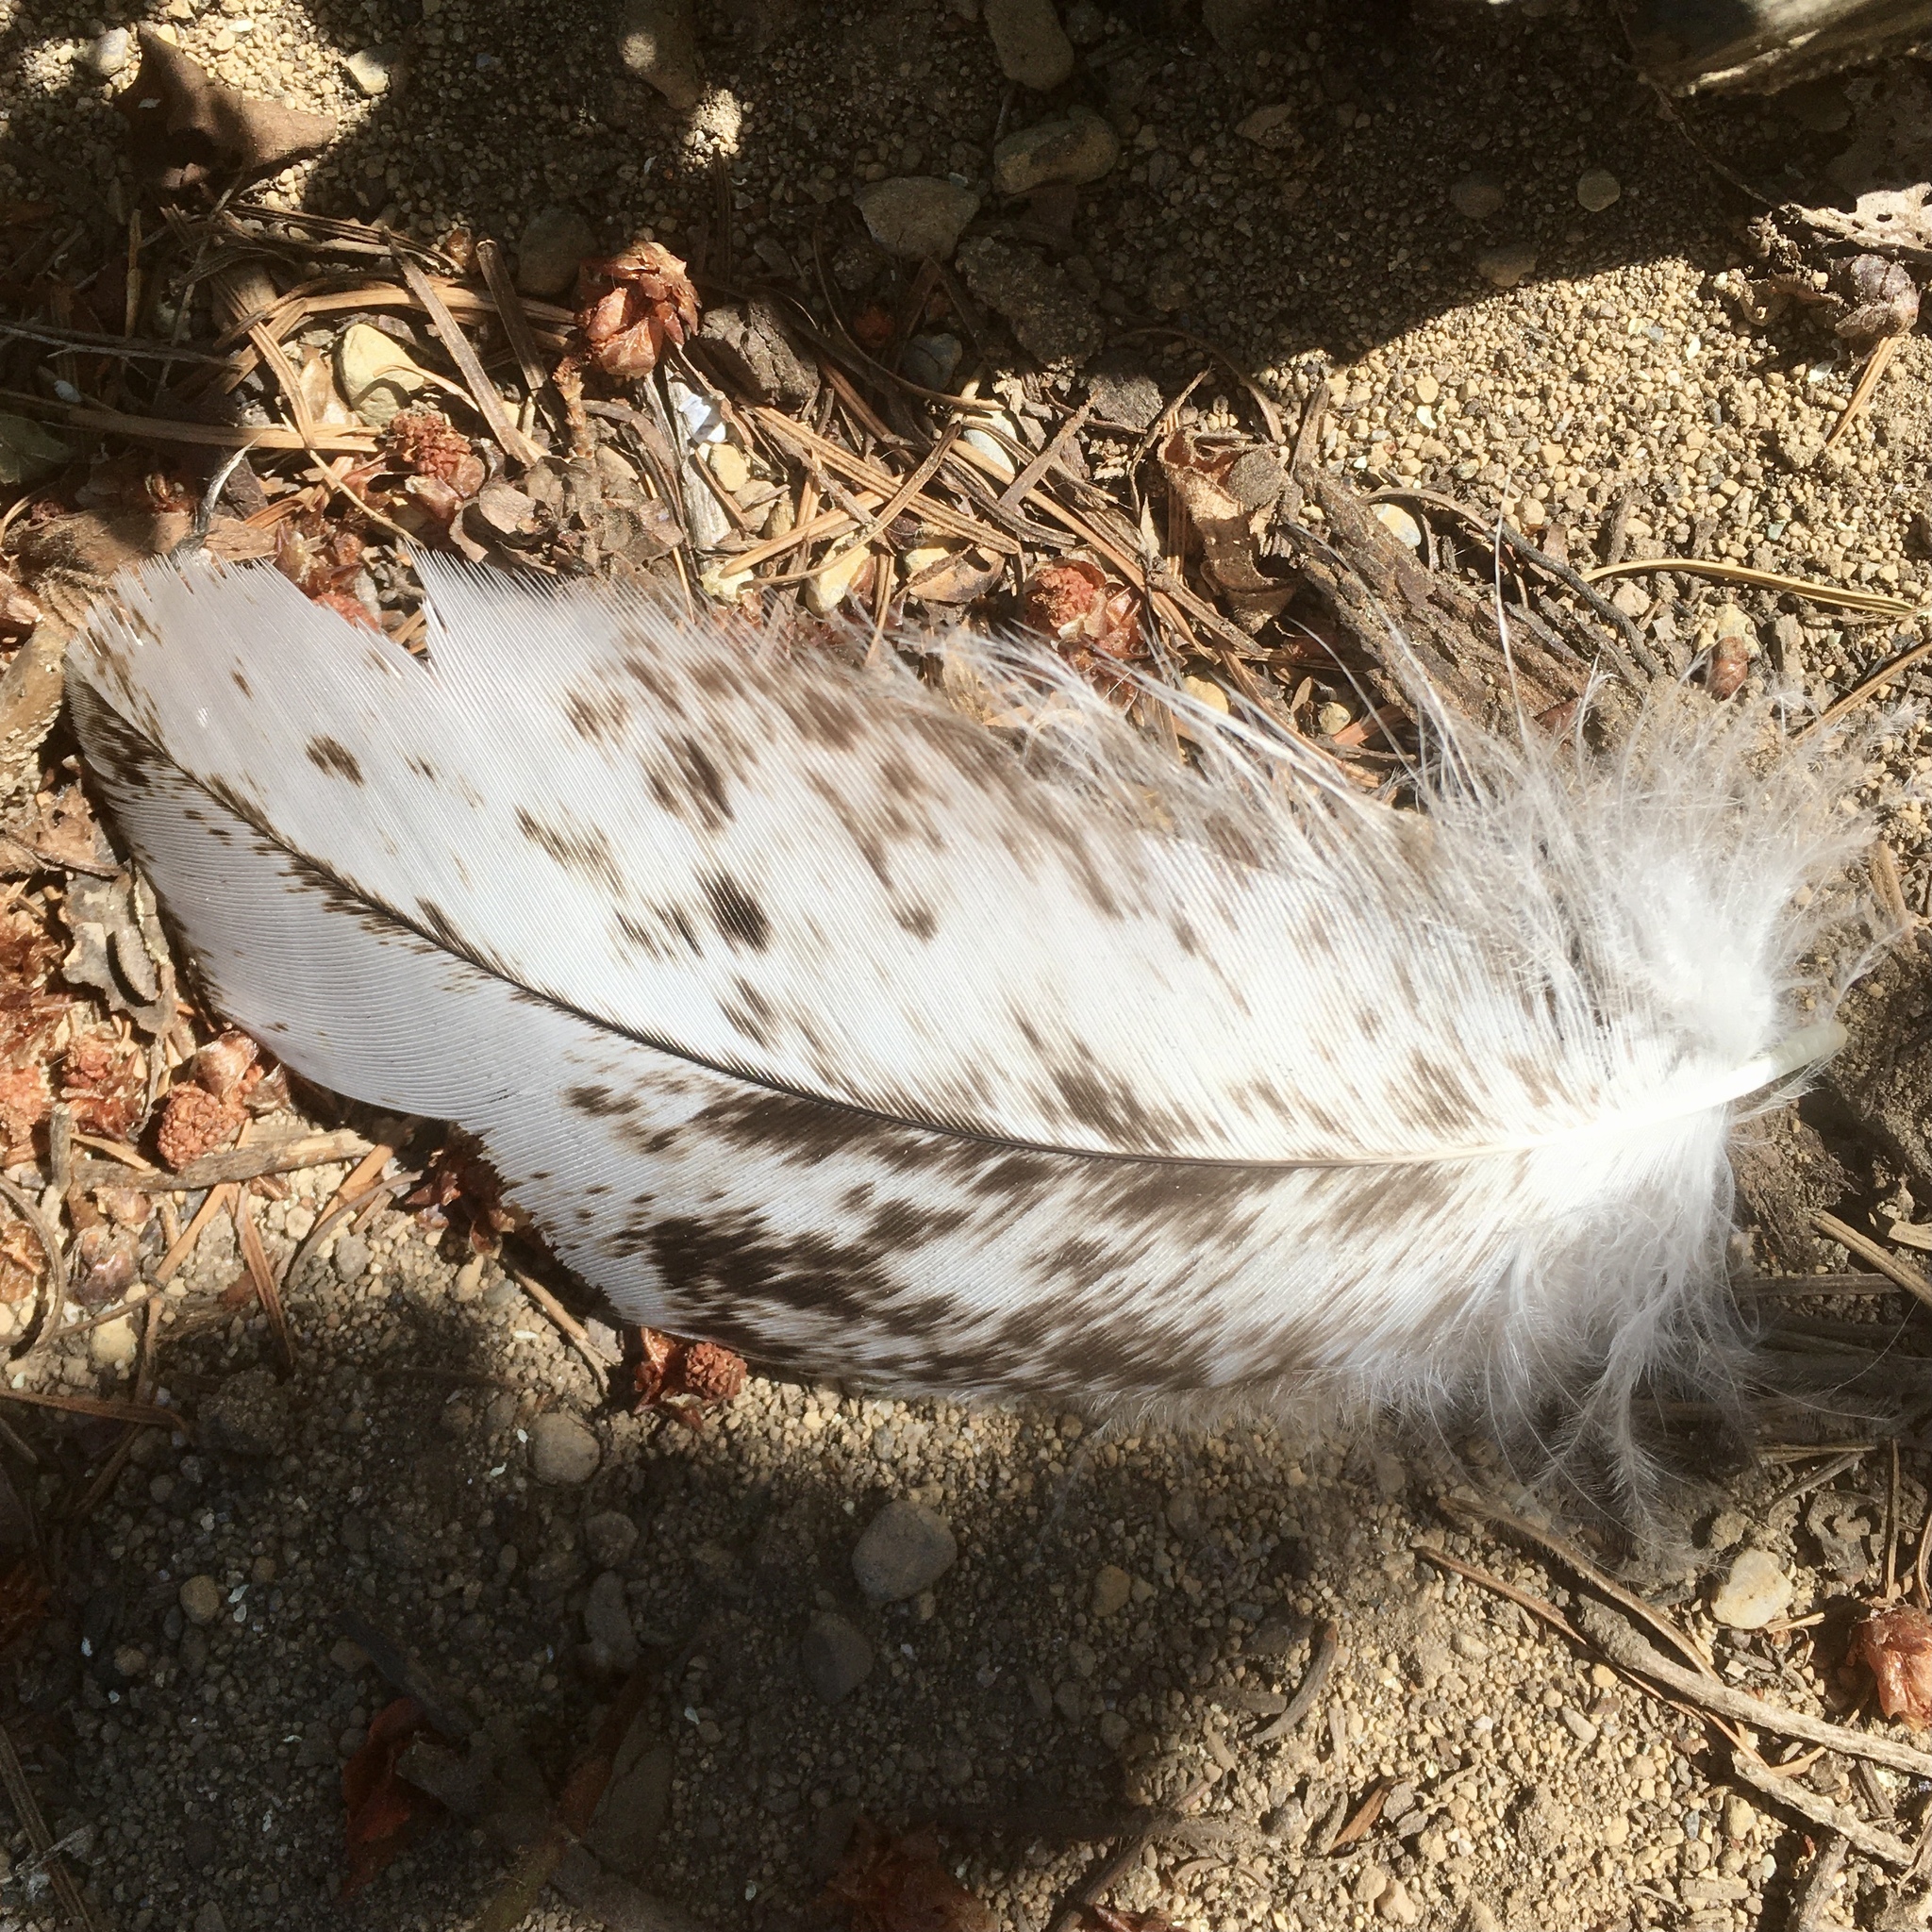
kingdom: Animalia
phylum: Chordata
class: Aves
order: Accipitriformes
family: Accipitridae
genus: Haliaeetus
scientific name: Haliaeetus leucocephalus
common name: Bald eagle
